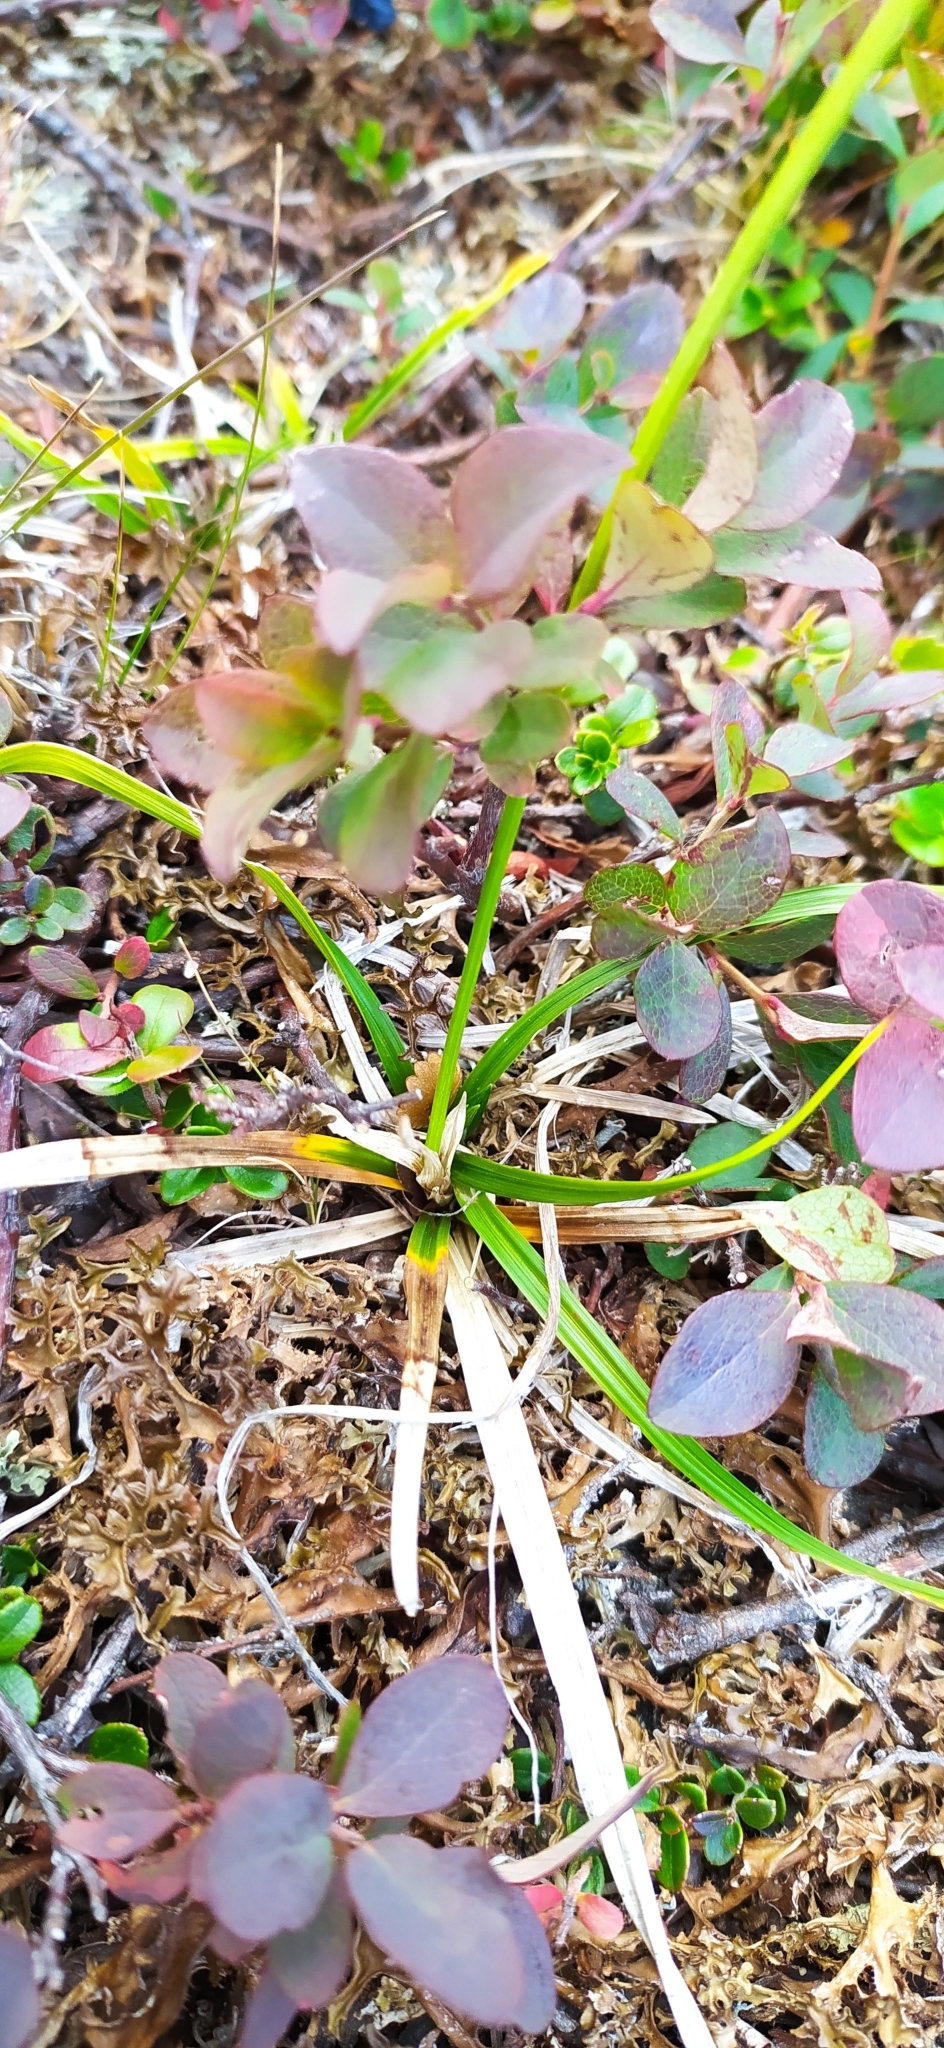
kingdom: Plantae
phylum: Tracheophyta
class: Liliopsida
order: Poales
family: Cyperaceae
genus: Carex
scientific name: Carex vaginata
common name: Sheathed sedge
